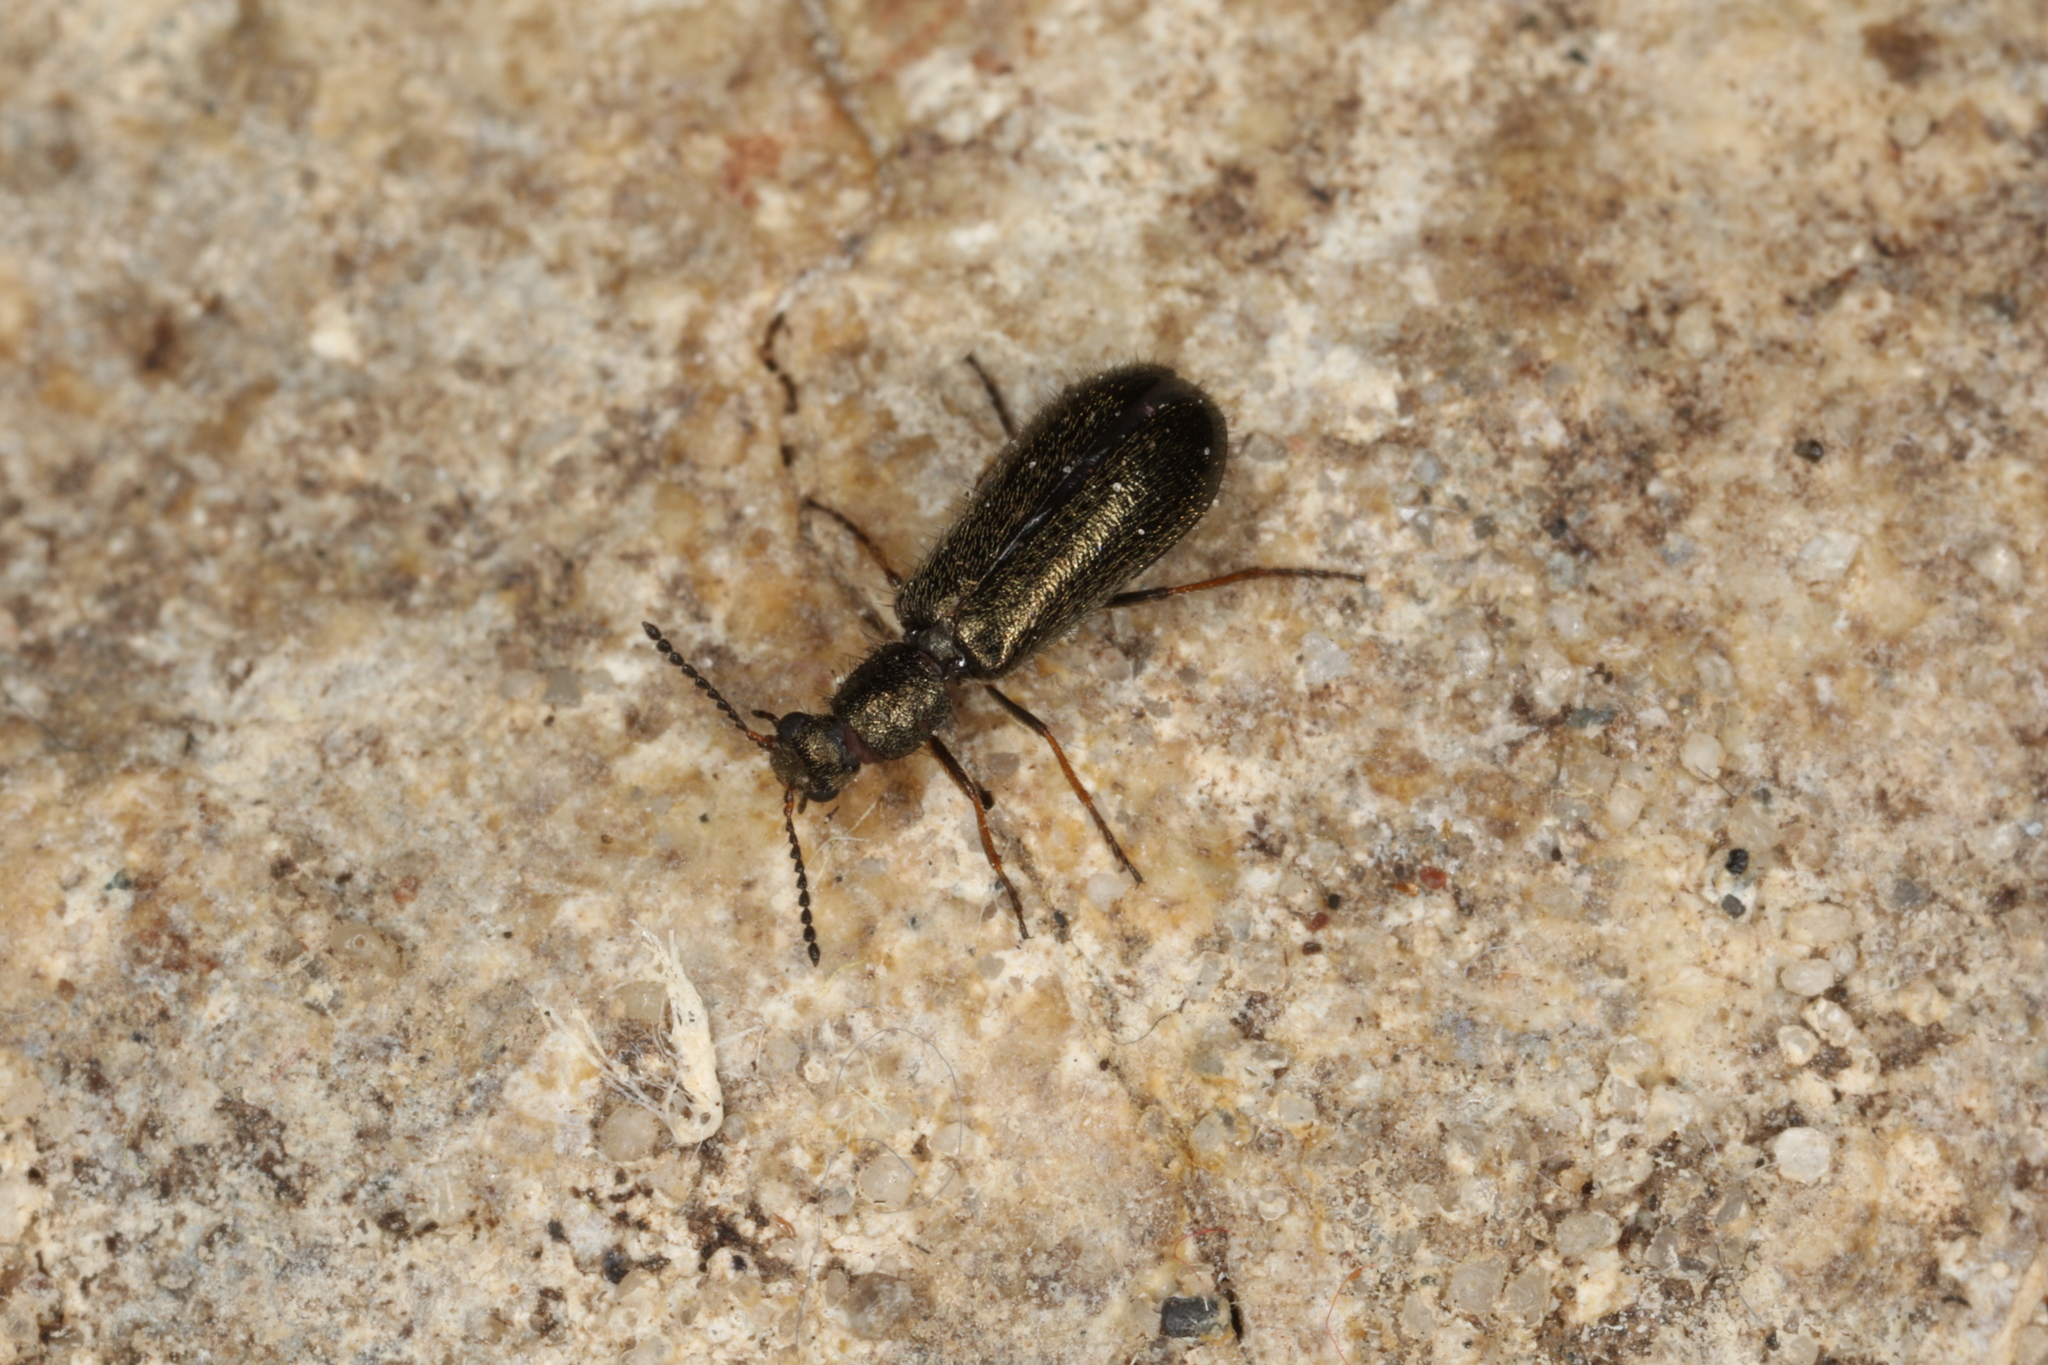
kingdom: Animalia
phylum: Arthropoda
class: Insecta
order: Coleoptera
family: Melyridae
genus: Dasytes
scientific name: Dasytes plumbeus
